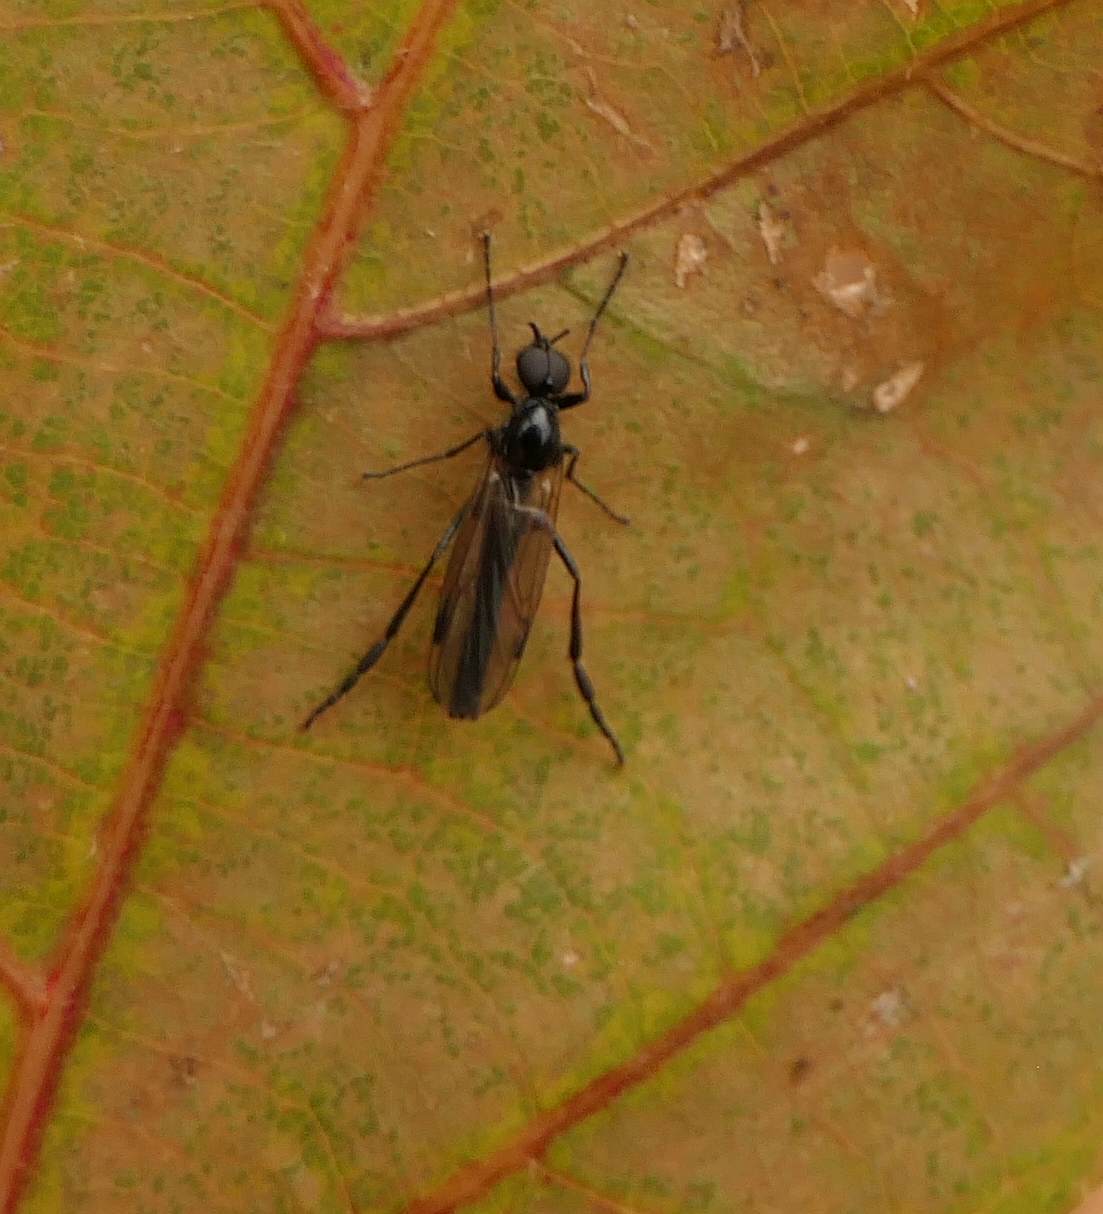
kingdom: Animalia
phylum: Arthropoda
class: Insecta
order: Diptera
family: Bibionidae
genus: Bibio
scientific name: Bibio slossonae
